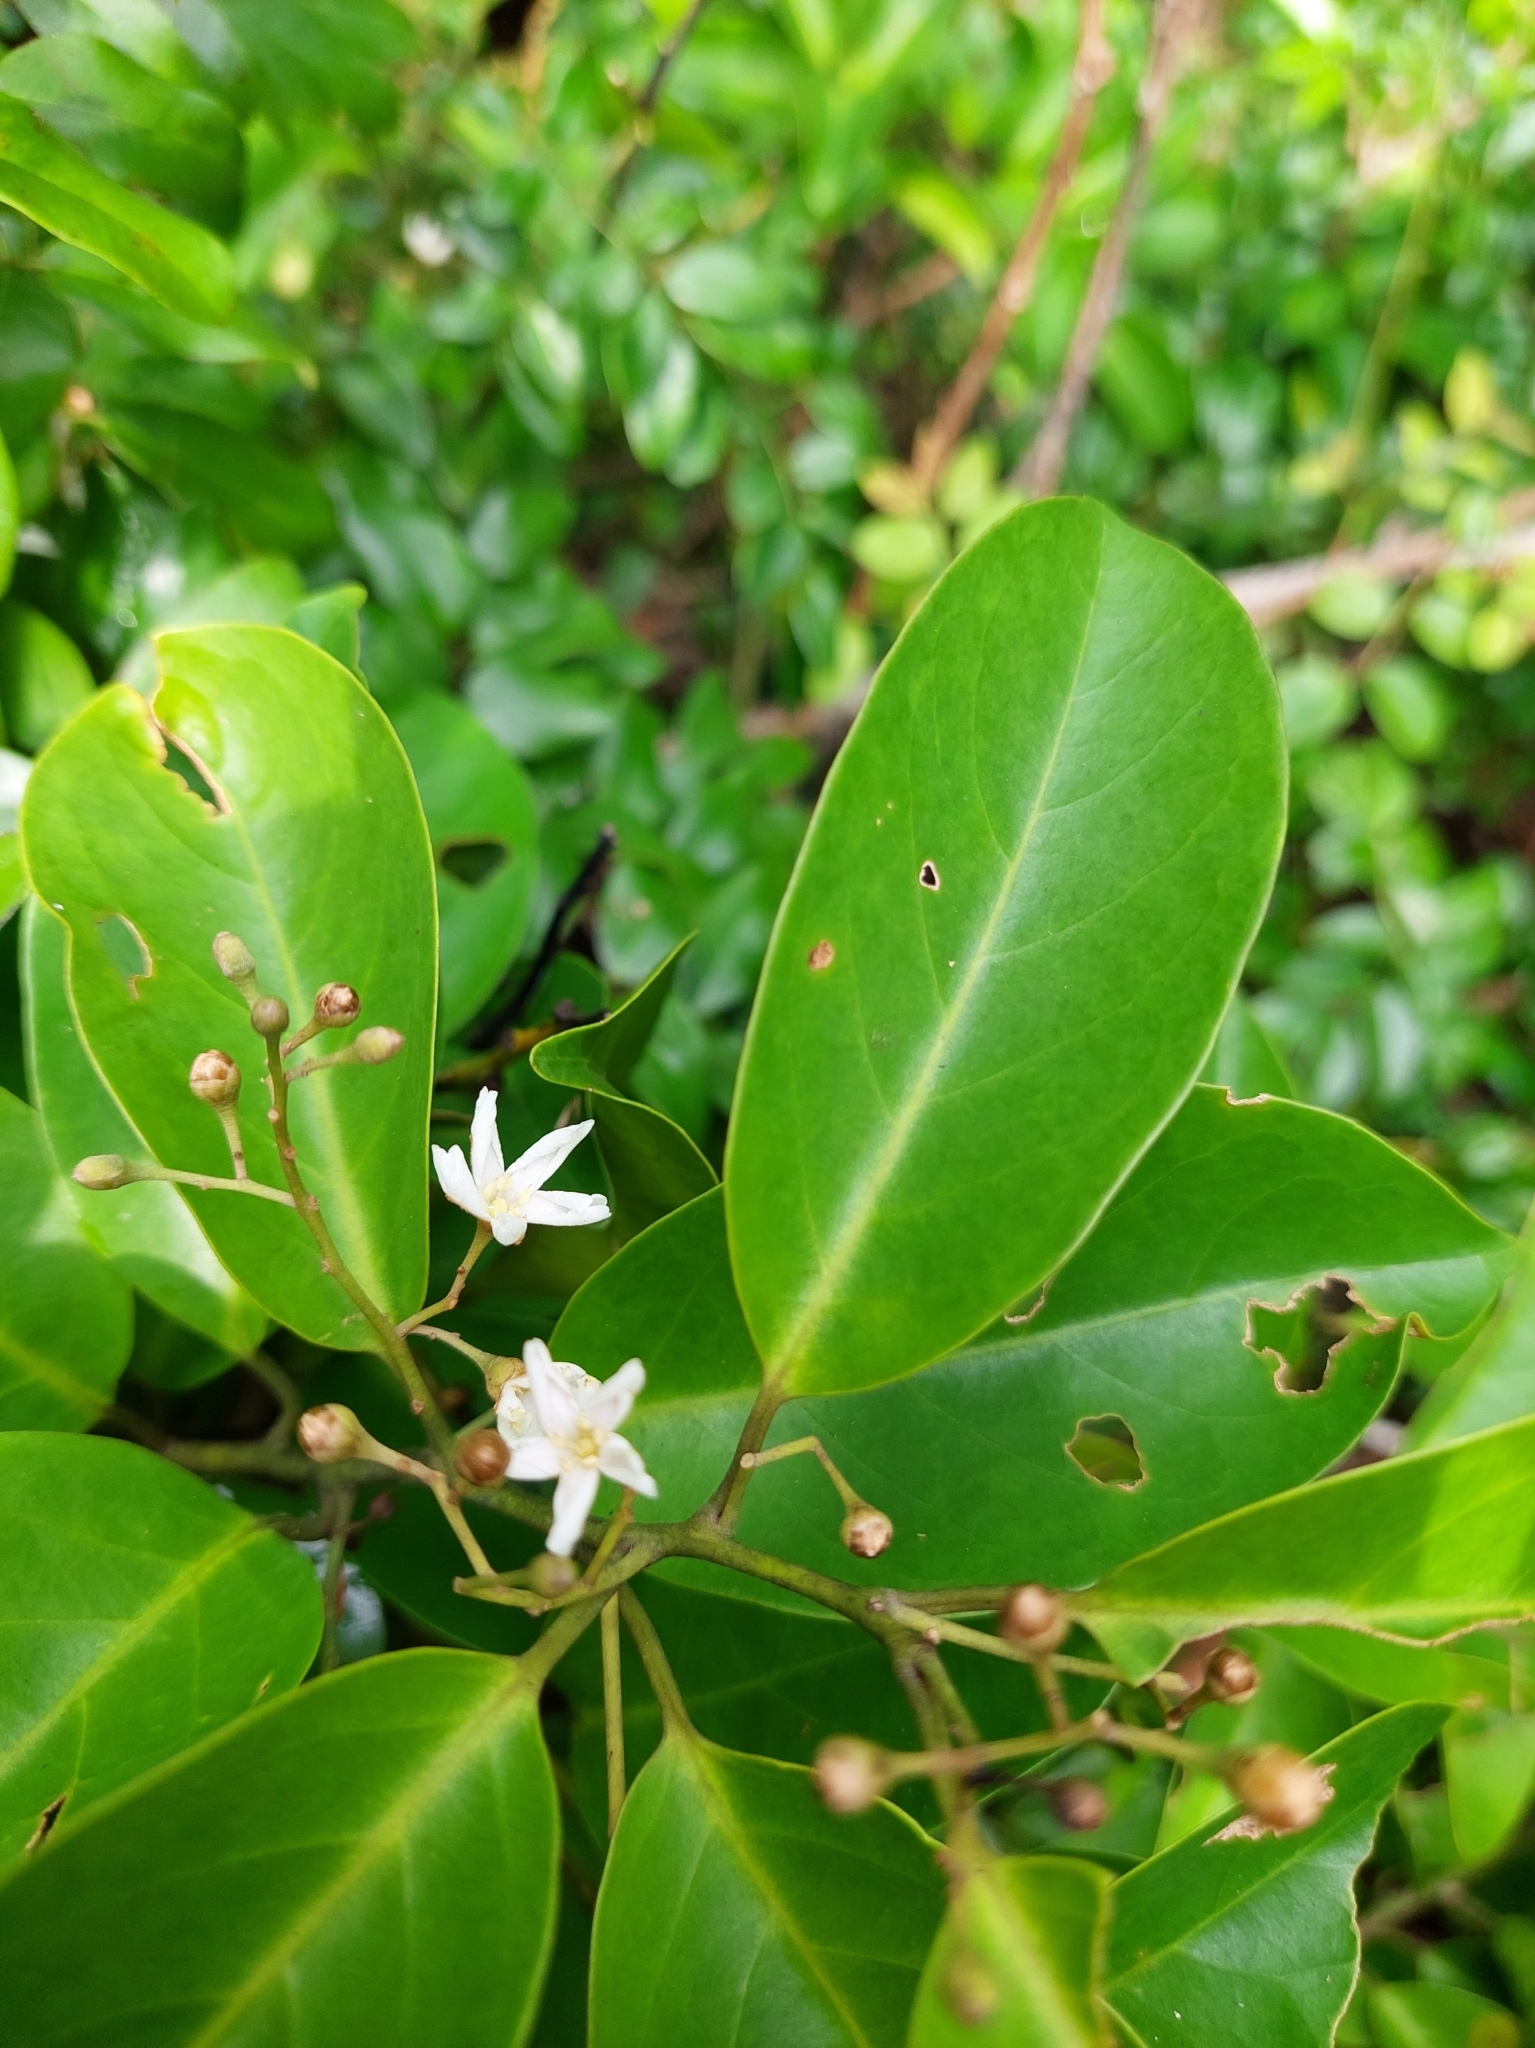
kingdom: Plantae
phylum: Tracheophyta
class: Magnoliopsida
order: Solanales
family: Convolvulaceae
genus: Erycibe
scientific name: Erycibe henryi
